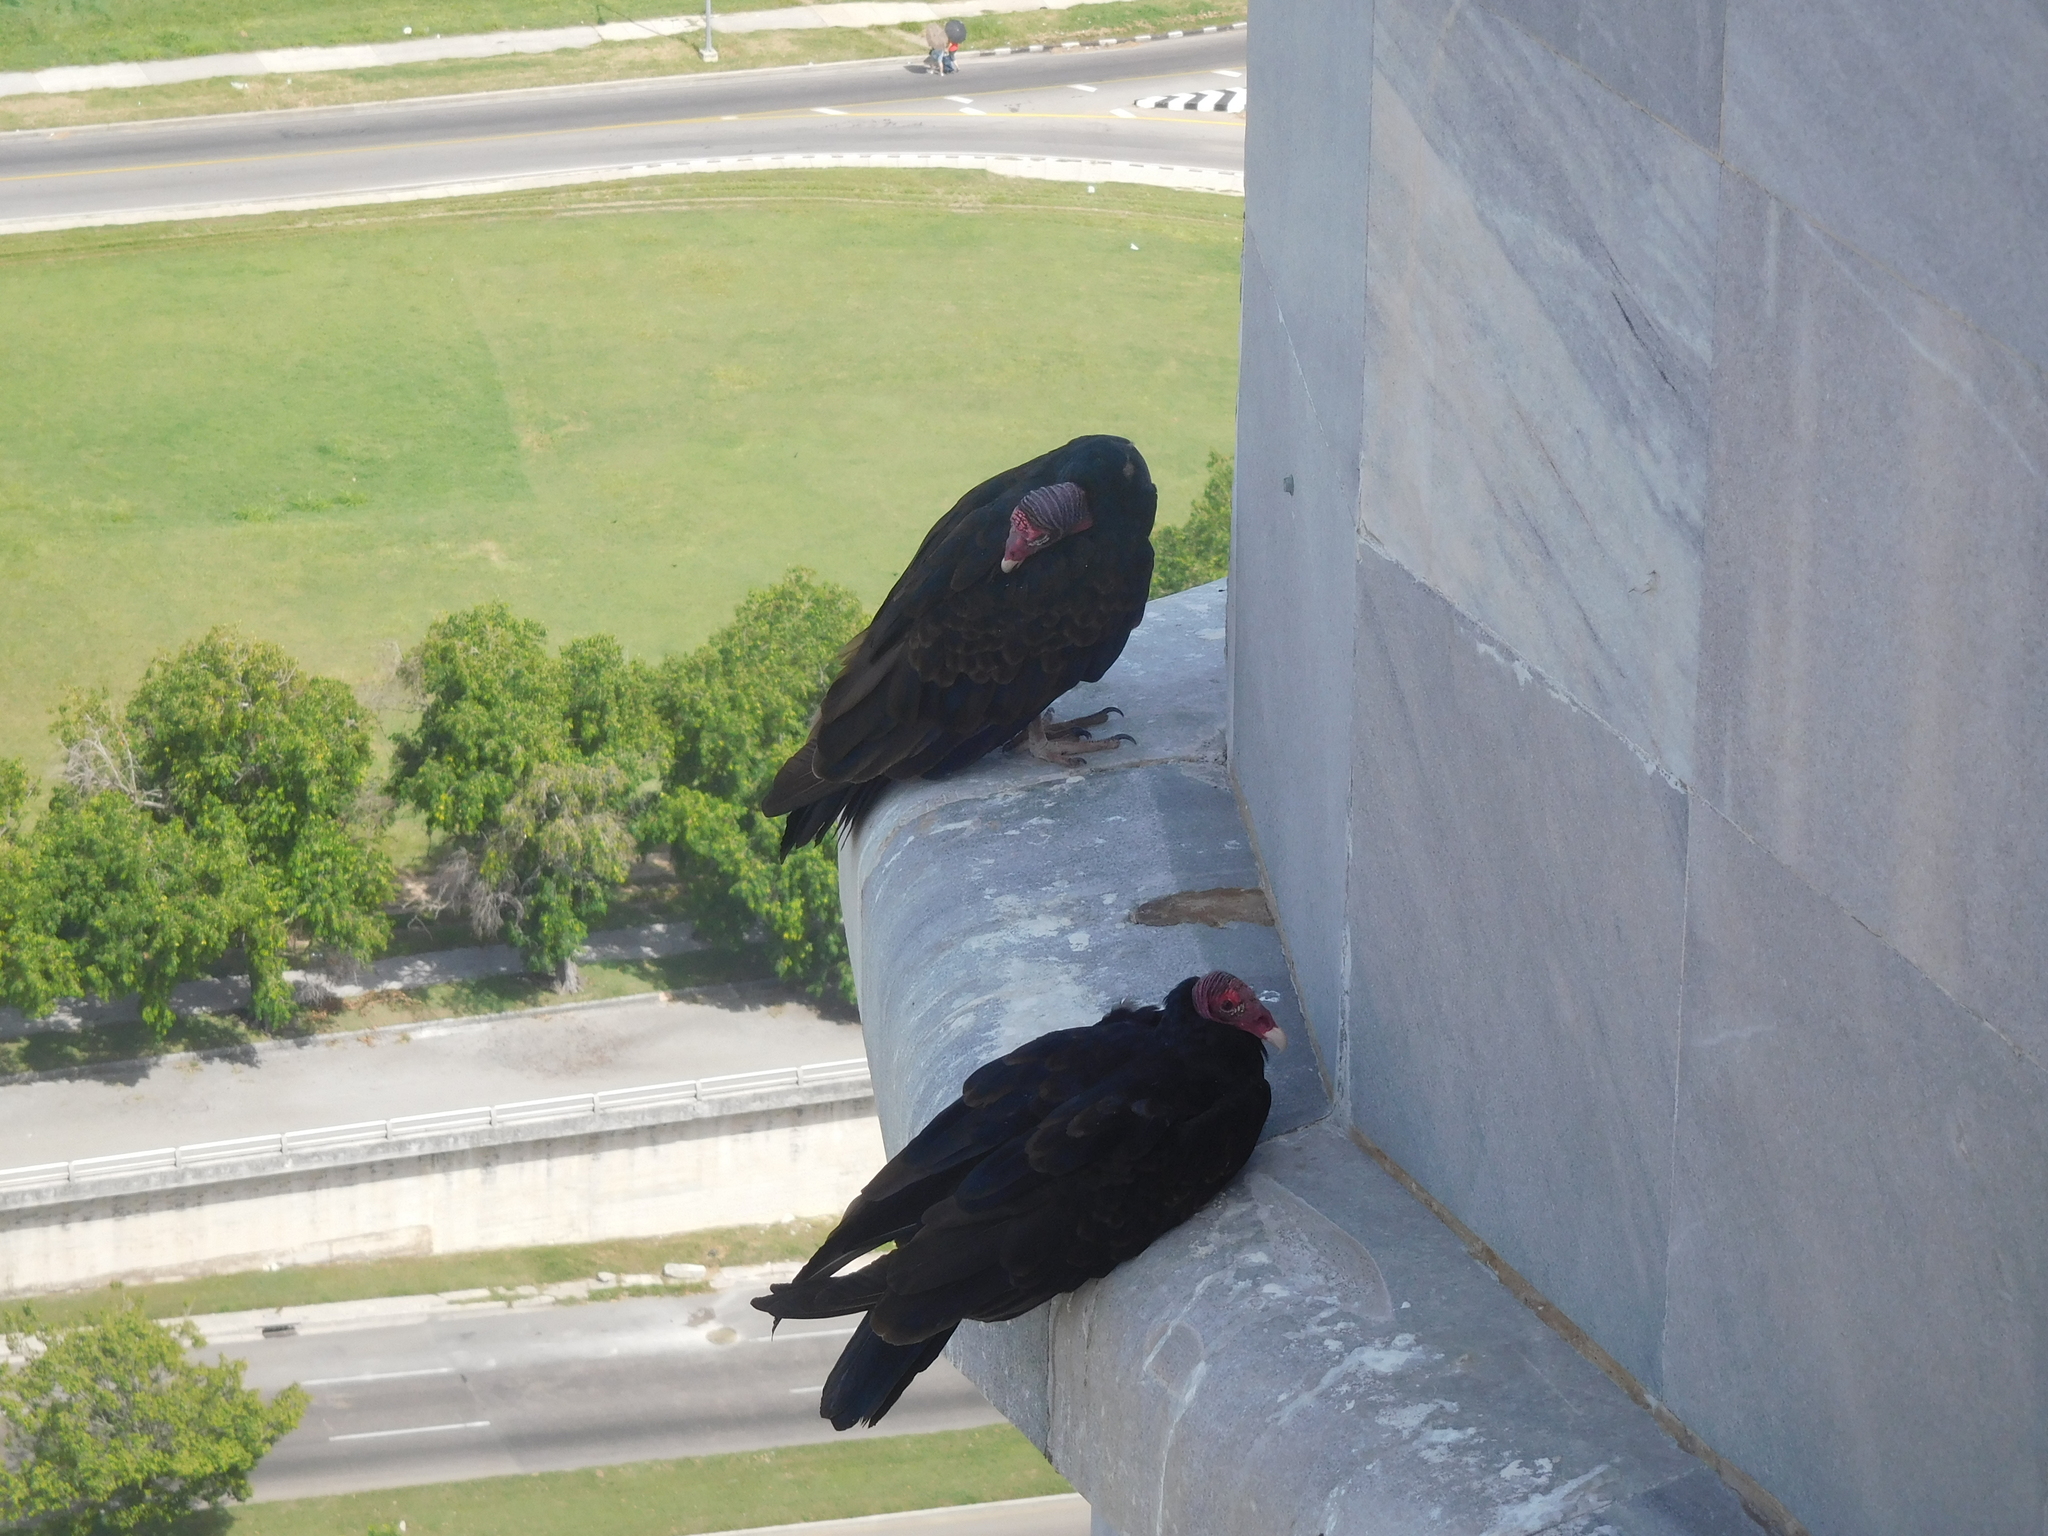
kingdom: Animalia
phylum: Chordata
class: Aves
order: Accipitriformes
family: Cathartidae
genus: Cathartes
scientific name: Cathartes aura
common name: Turkey vulture
